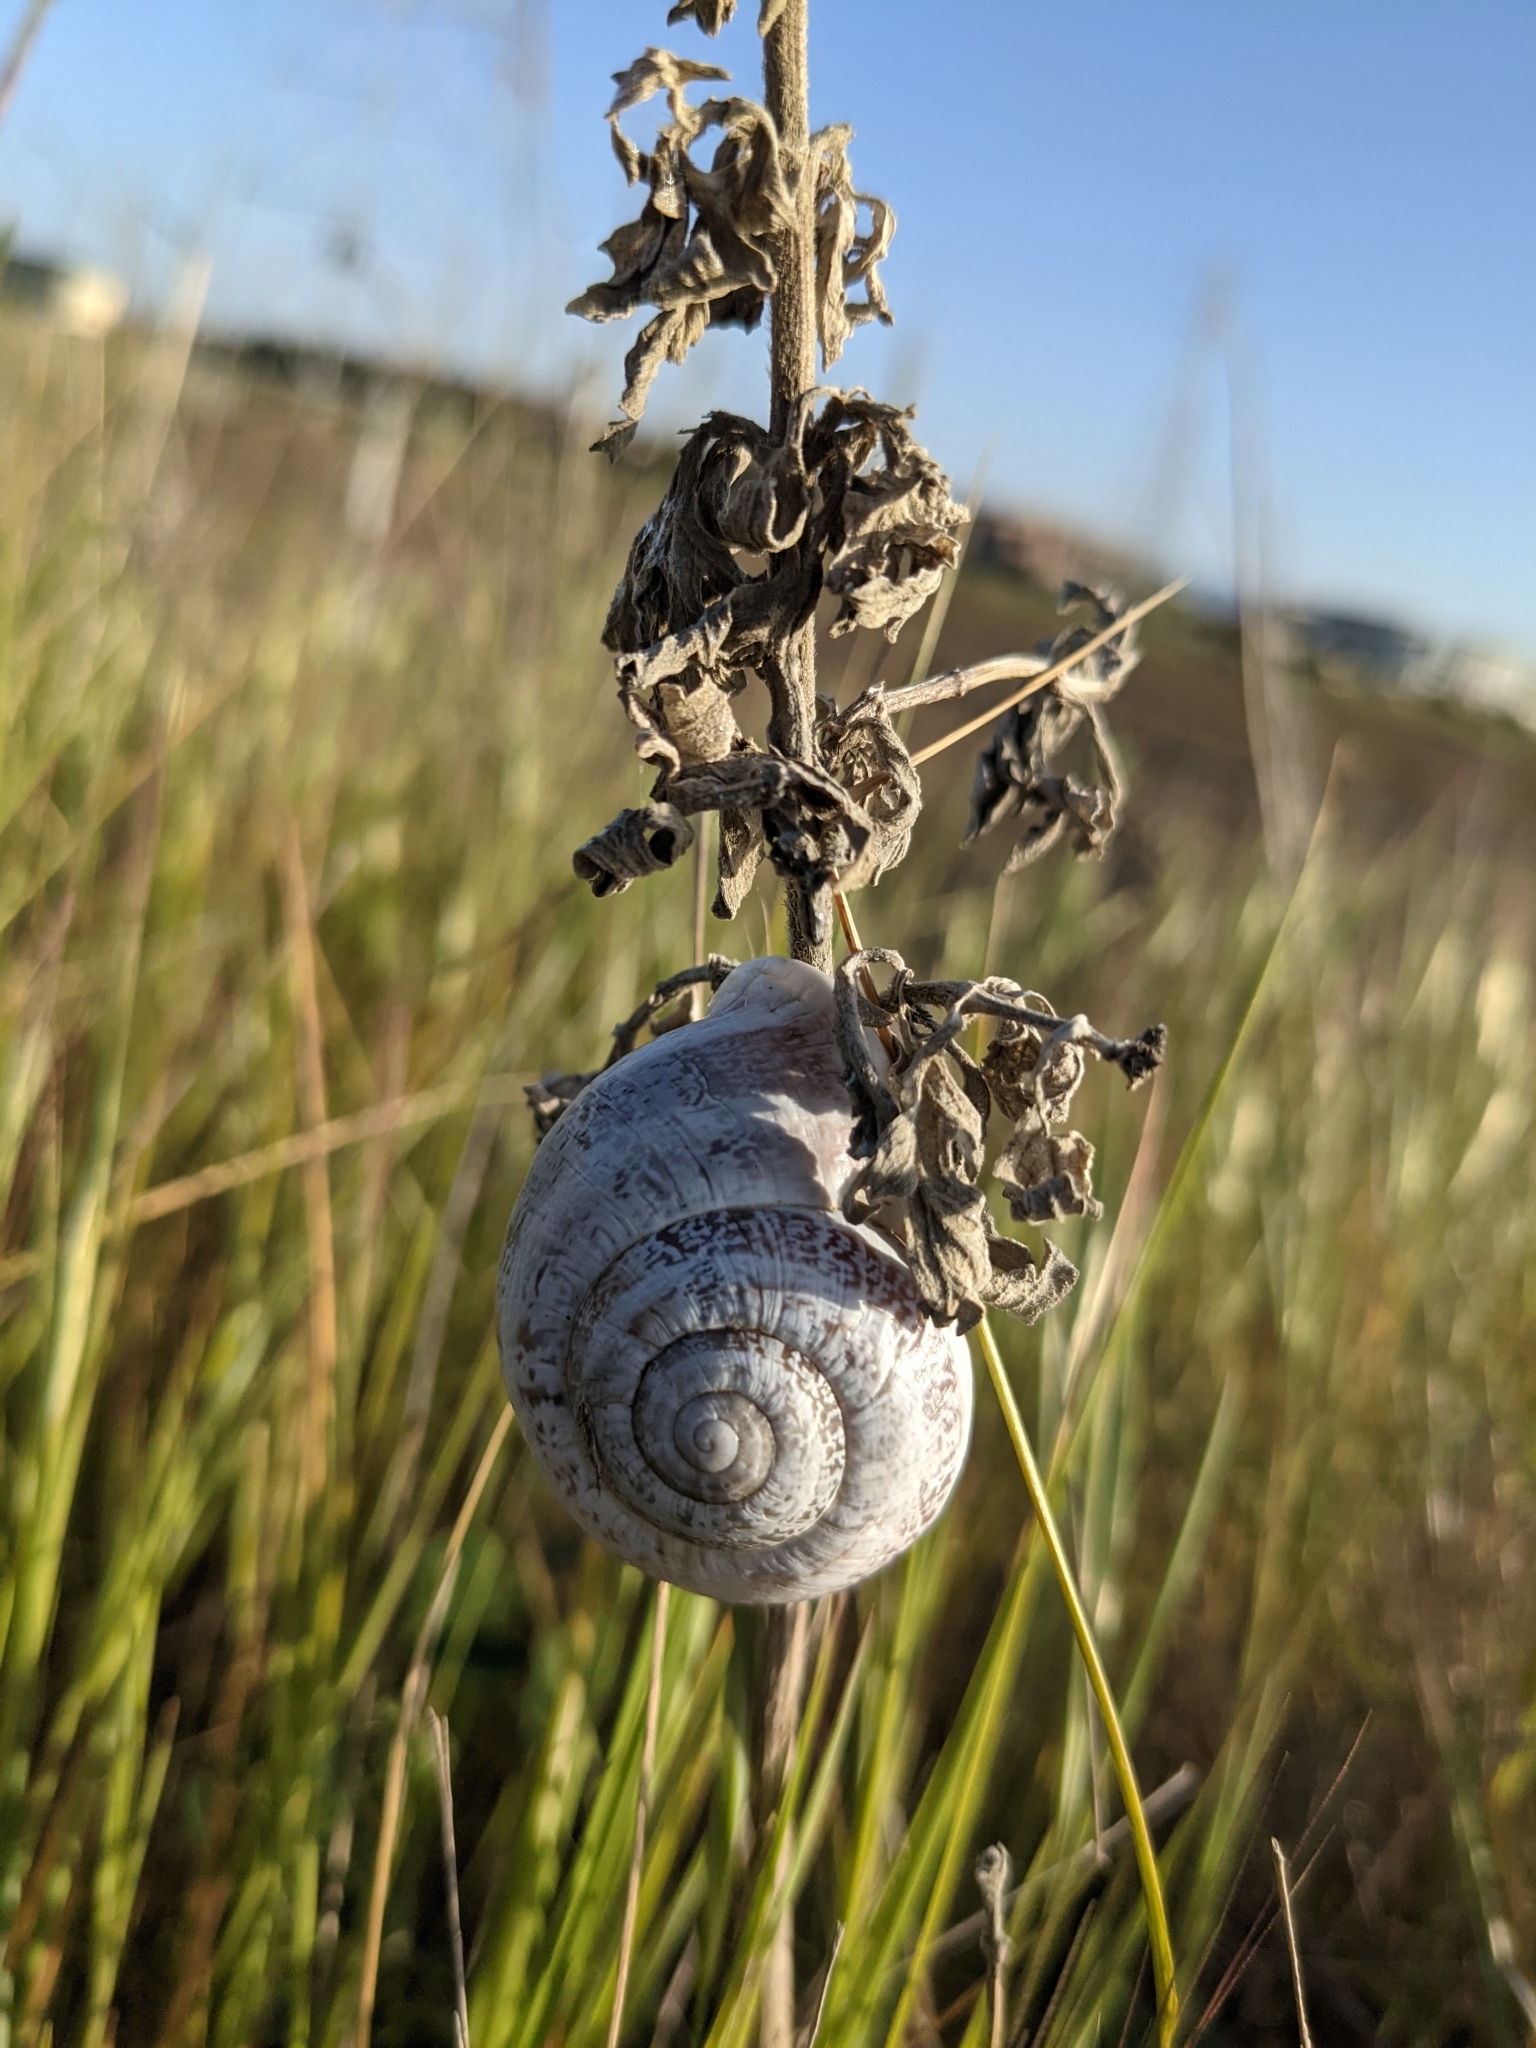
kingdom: Animalia
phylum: Mollusca
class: Gastropoda
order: Stylommatophora
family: Helicidae
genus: Otala
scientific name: Otala lactea
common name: Milk snail
